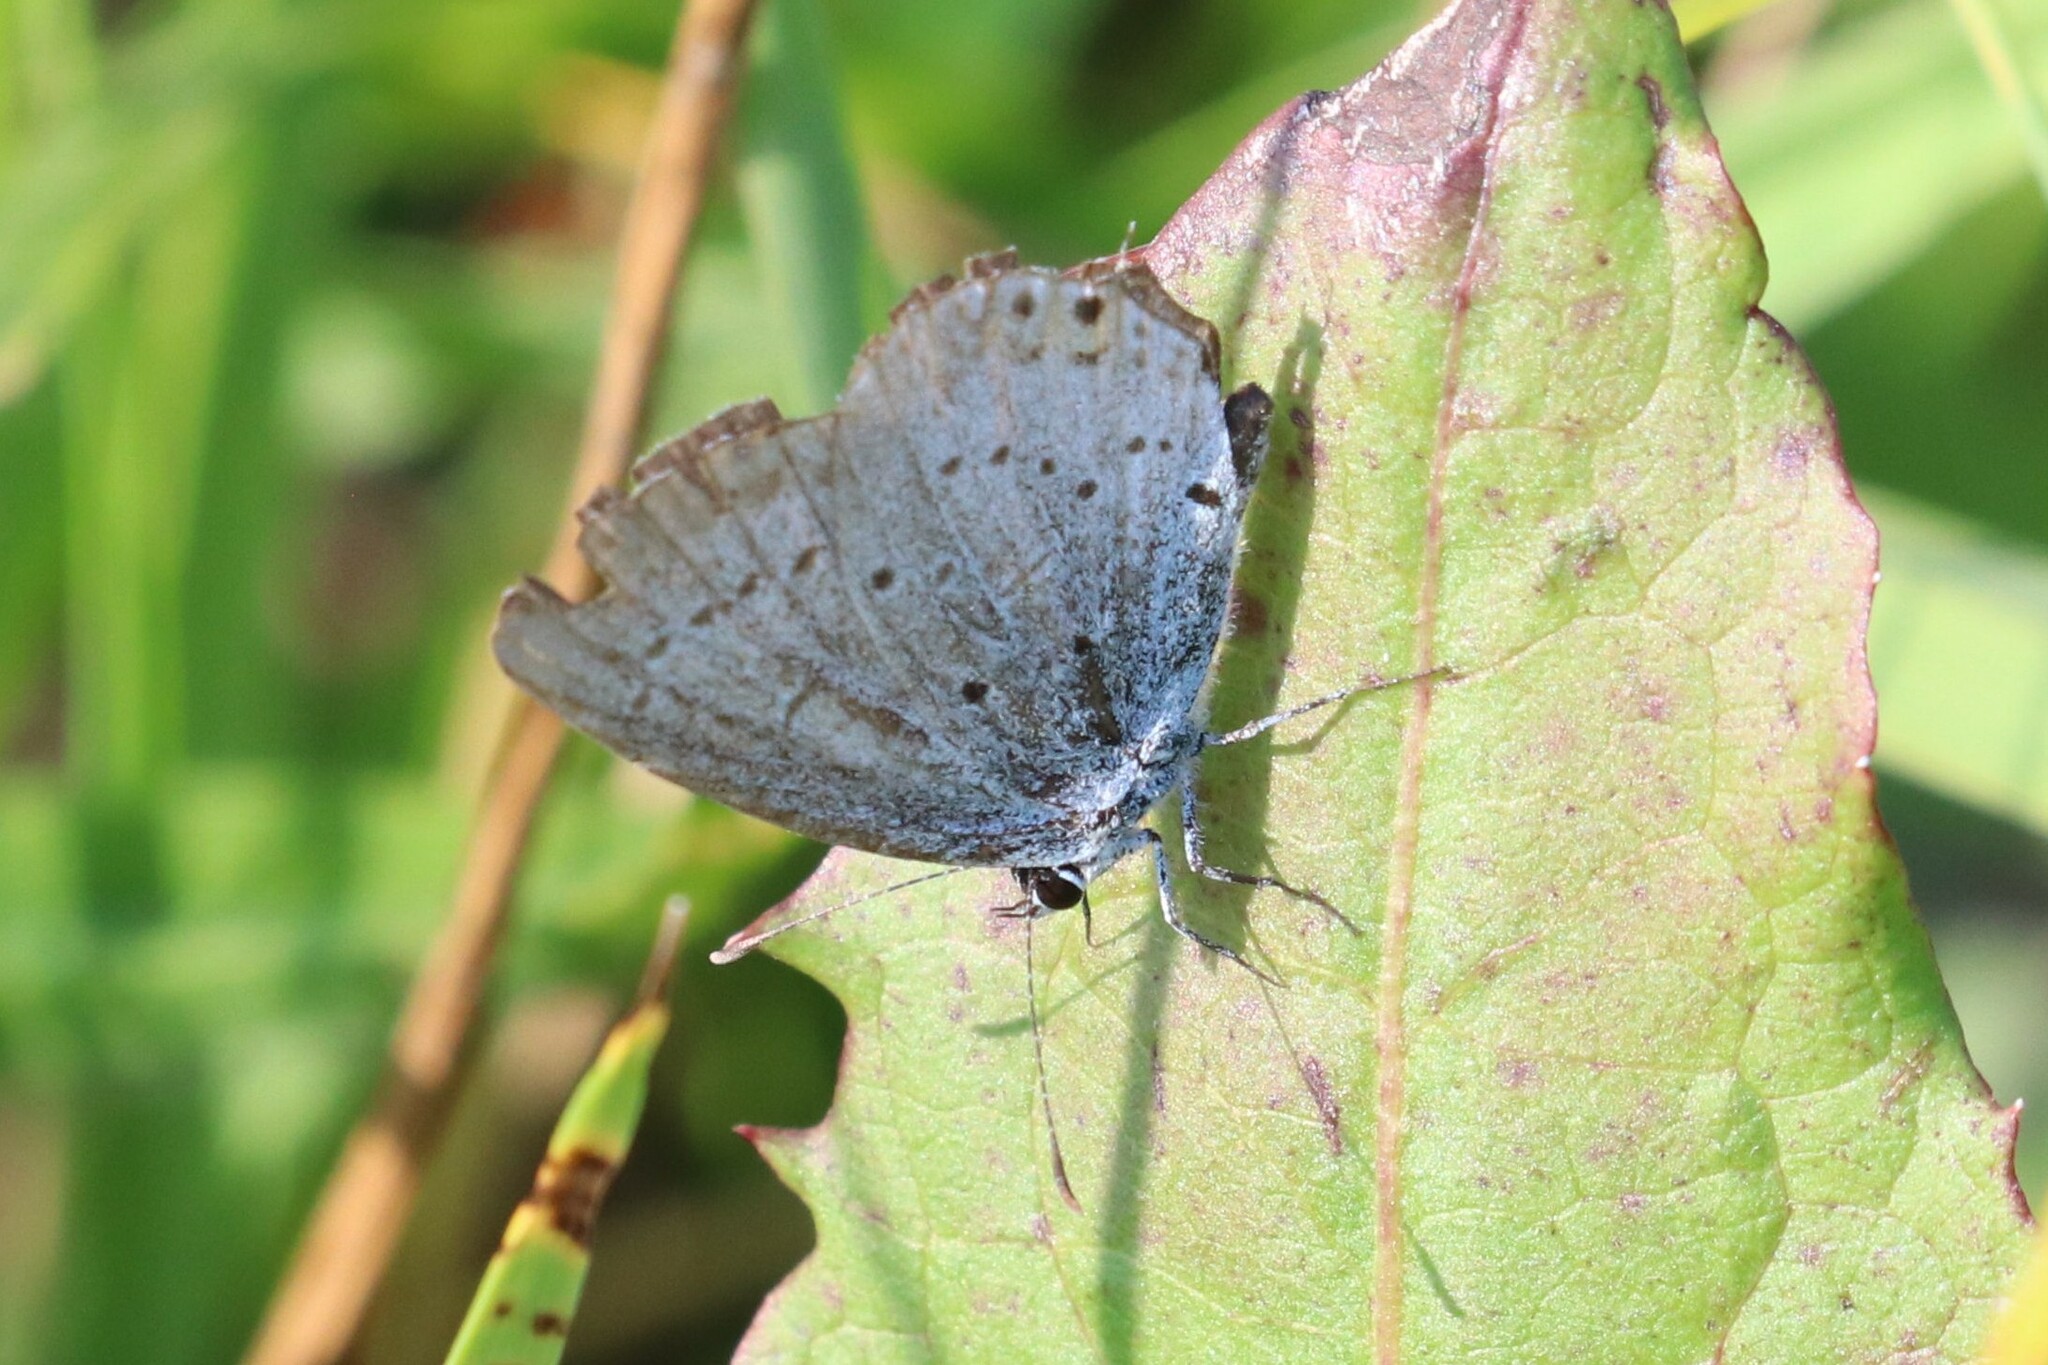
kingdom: Animalia
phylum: Arthropoda
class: Insecta
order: Lepidoptera
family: Lycaenidae
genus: Elkalyce
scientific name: Elkalyce argiades
